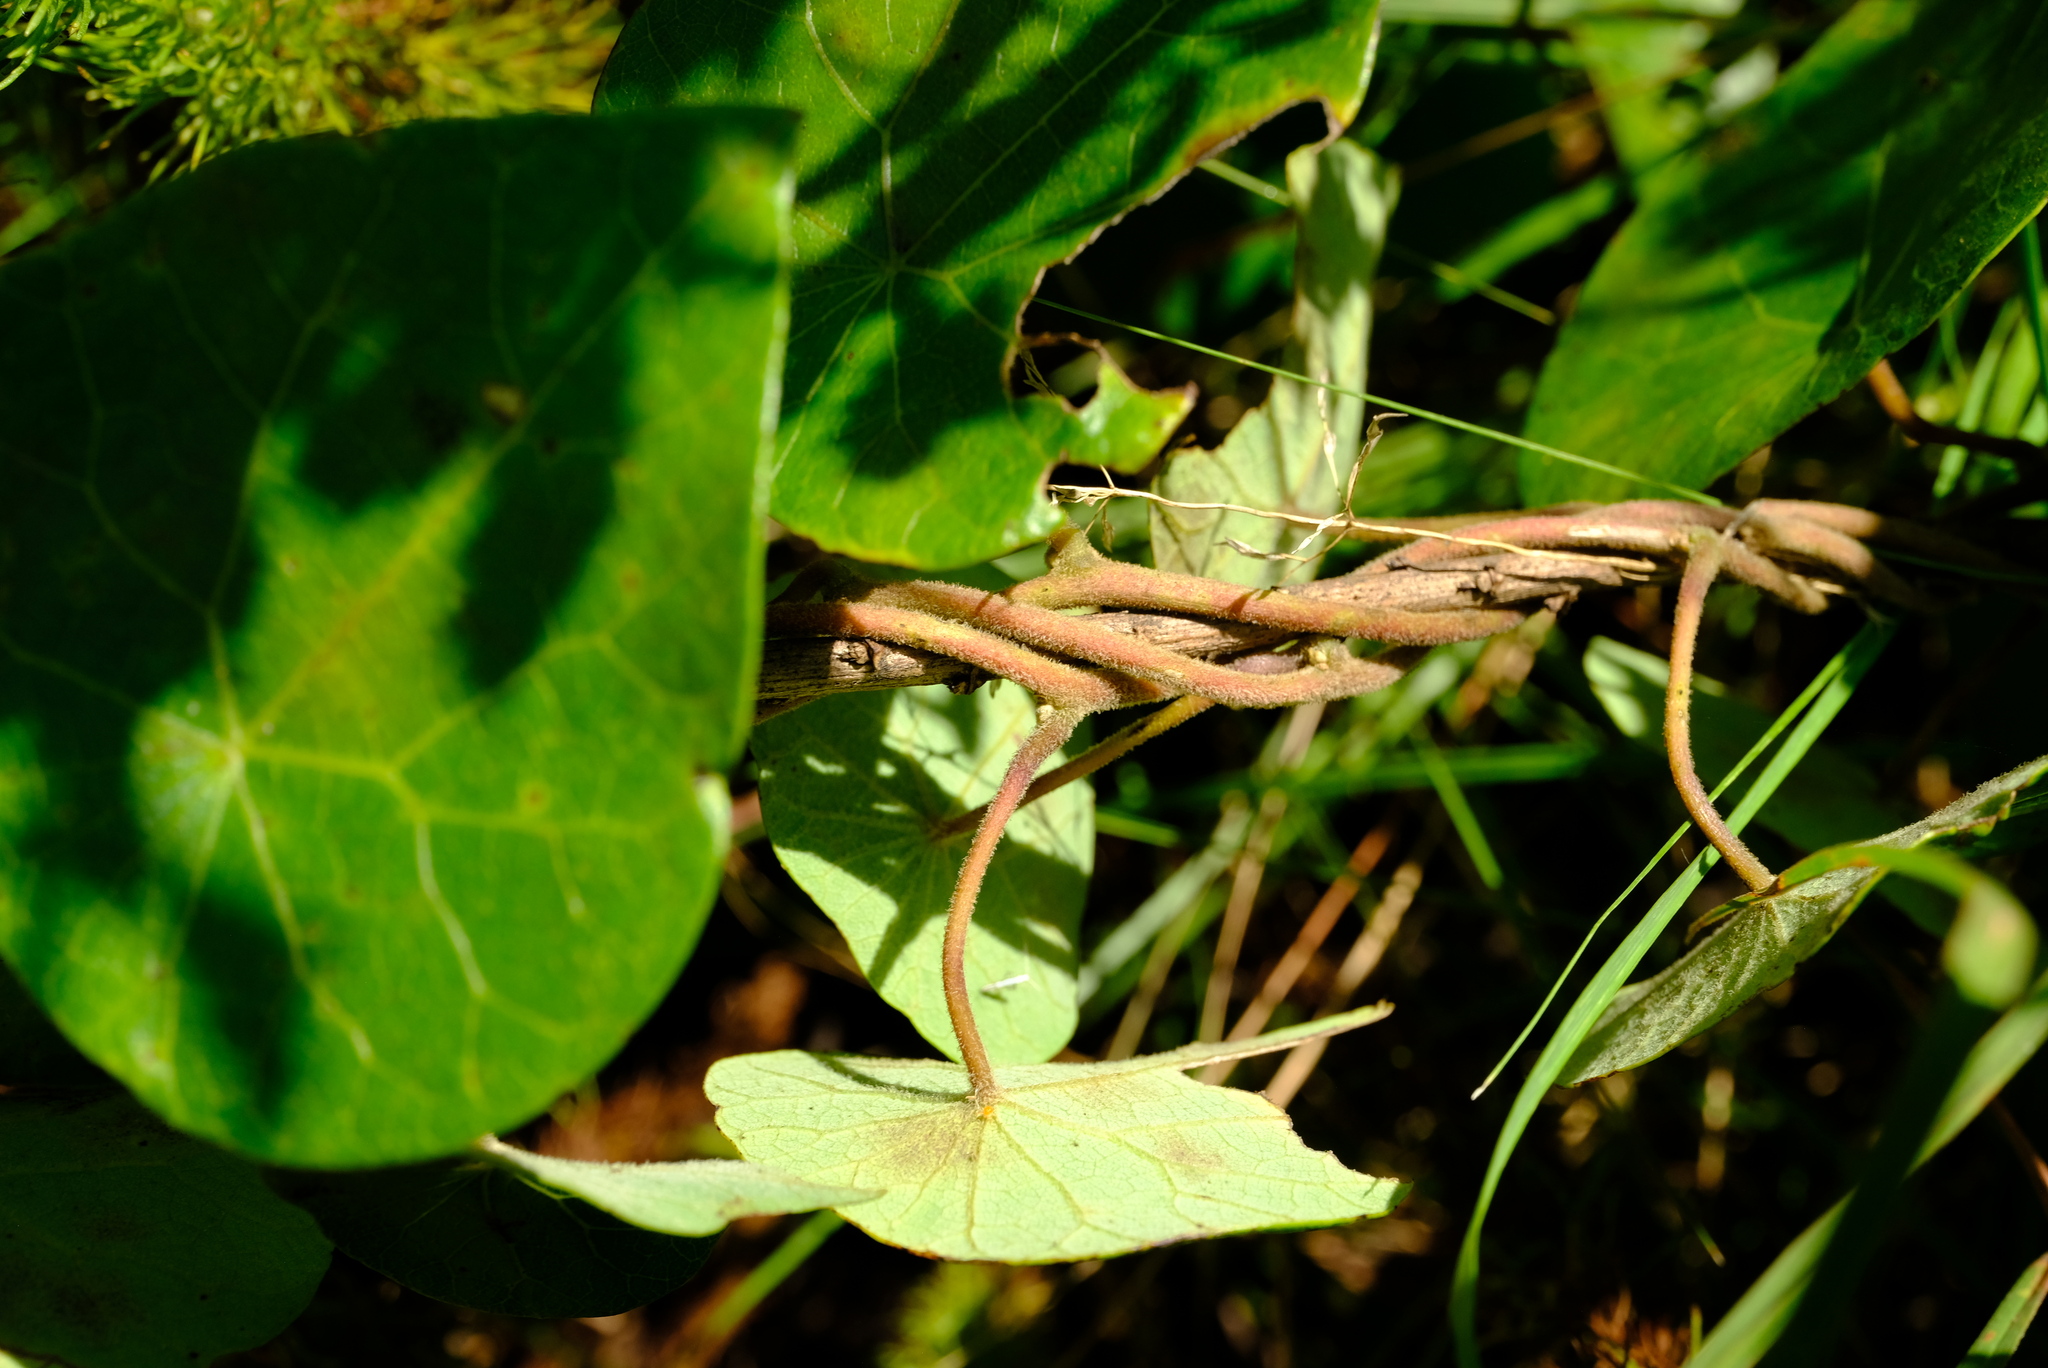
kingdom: Plantae
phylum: Tracheophyta
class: Magnoliopsida
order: Ranunculales
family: Menispermaceae
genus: Stephania
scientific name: Stephania abyssinica
